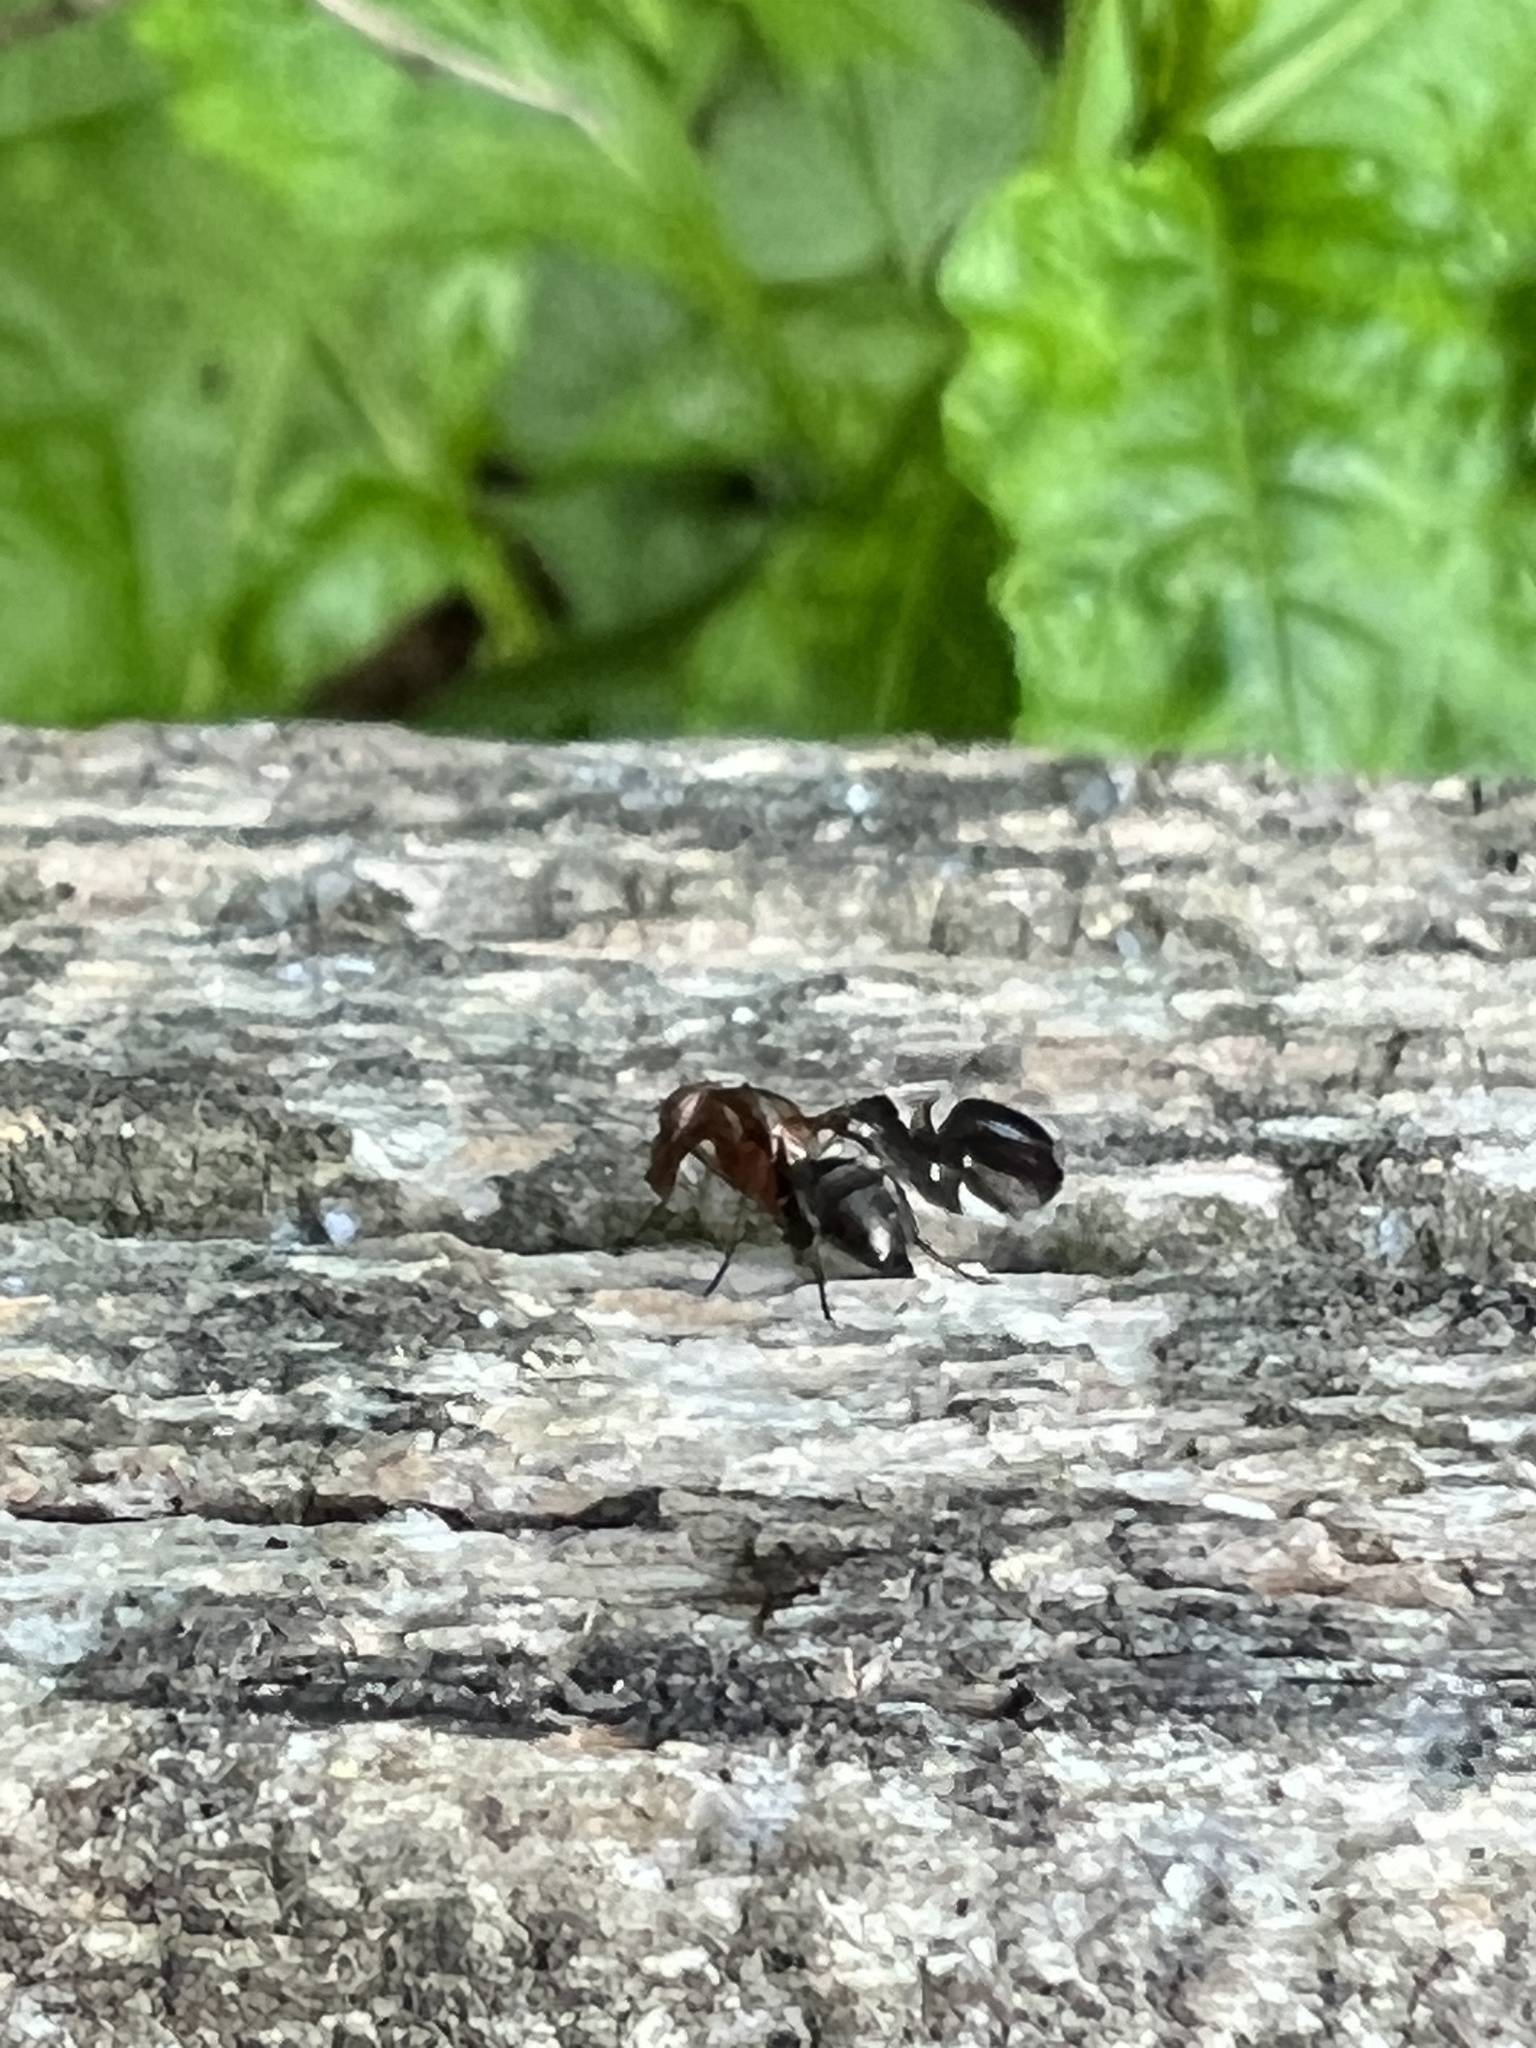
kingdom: Animalia
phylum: Arthropoda
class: Insecta
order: Diptera
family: Ulidiidae
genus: Delphinia
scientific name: Delphinia picta
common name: Common picture-winged fly
